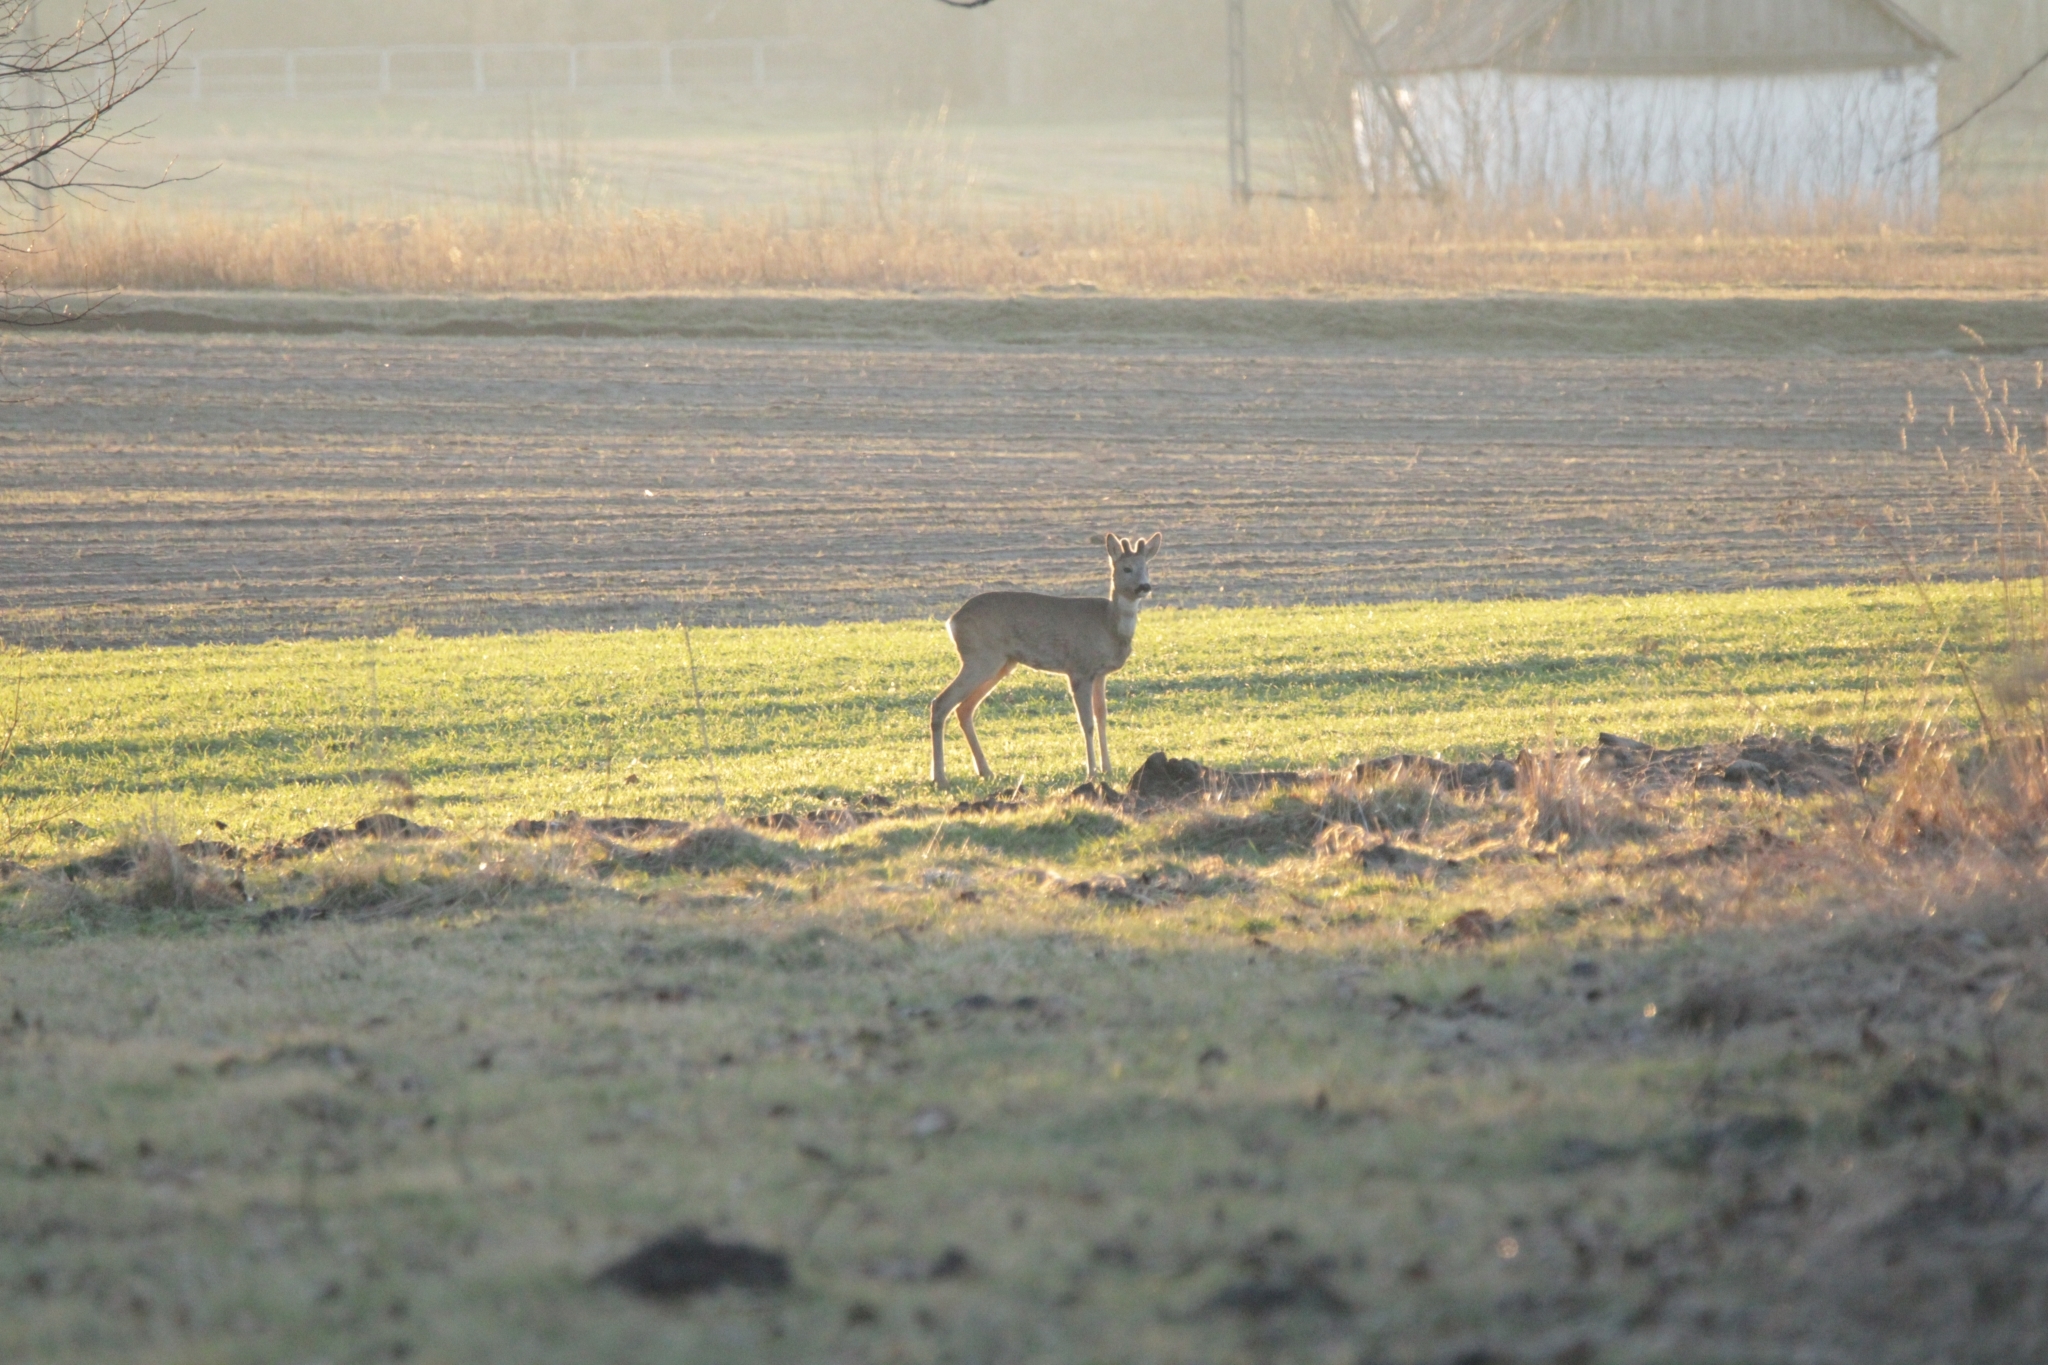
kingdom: Animalia
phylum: Chordata
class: Mammalia
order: Artiodactyla
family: Cervidae
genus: Capreolus
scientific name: Capreolus capreolus
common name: Western roe deer
